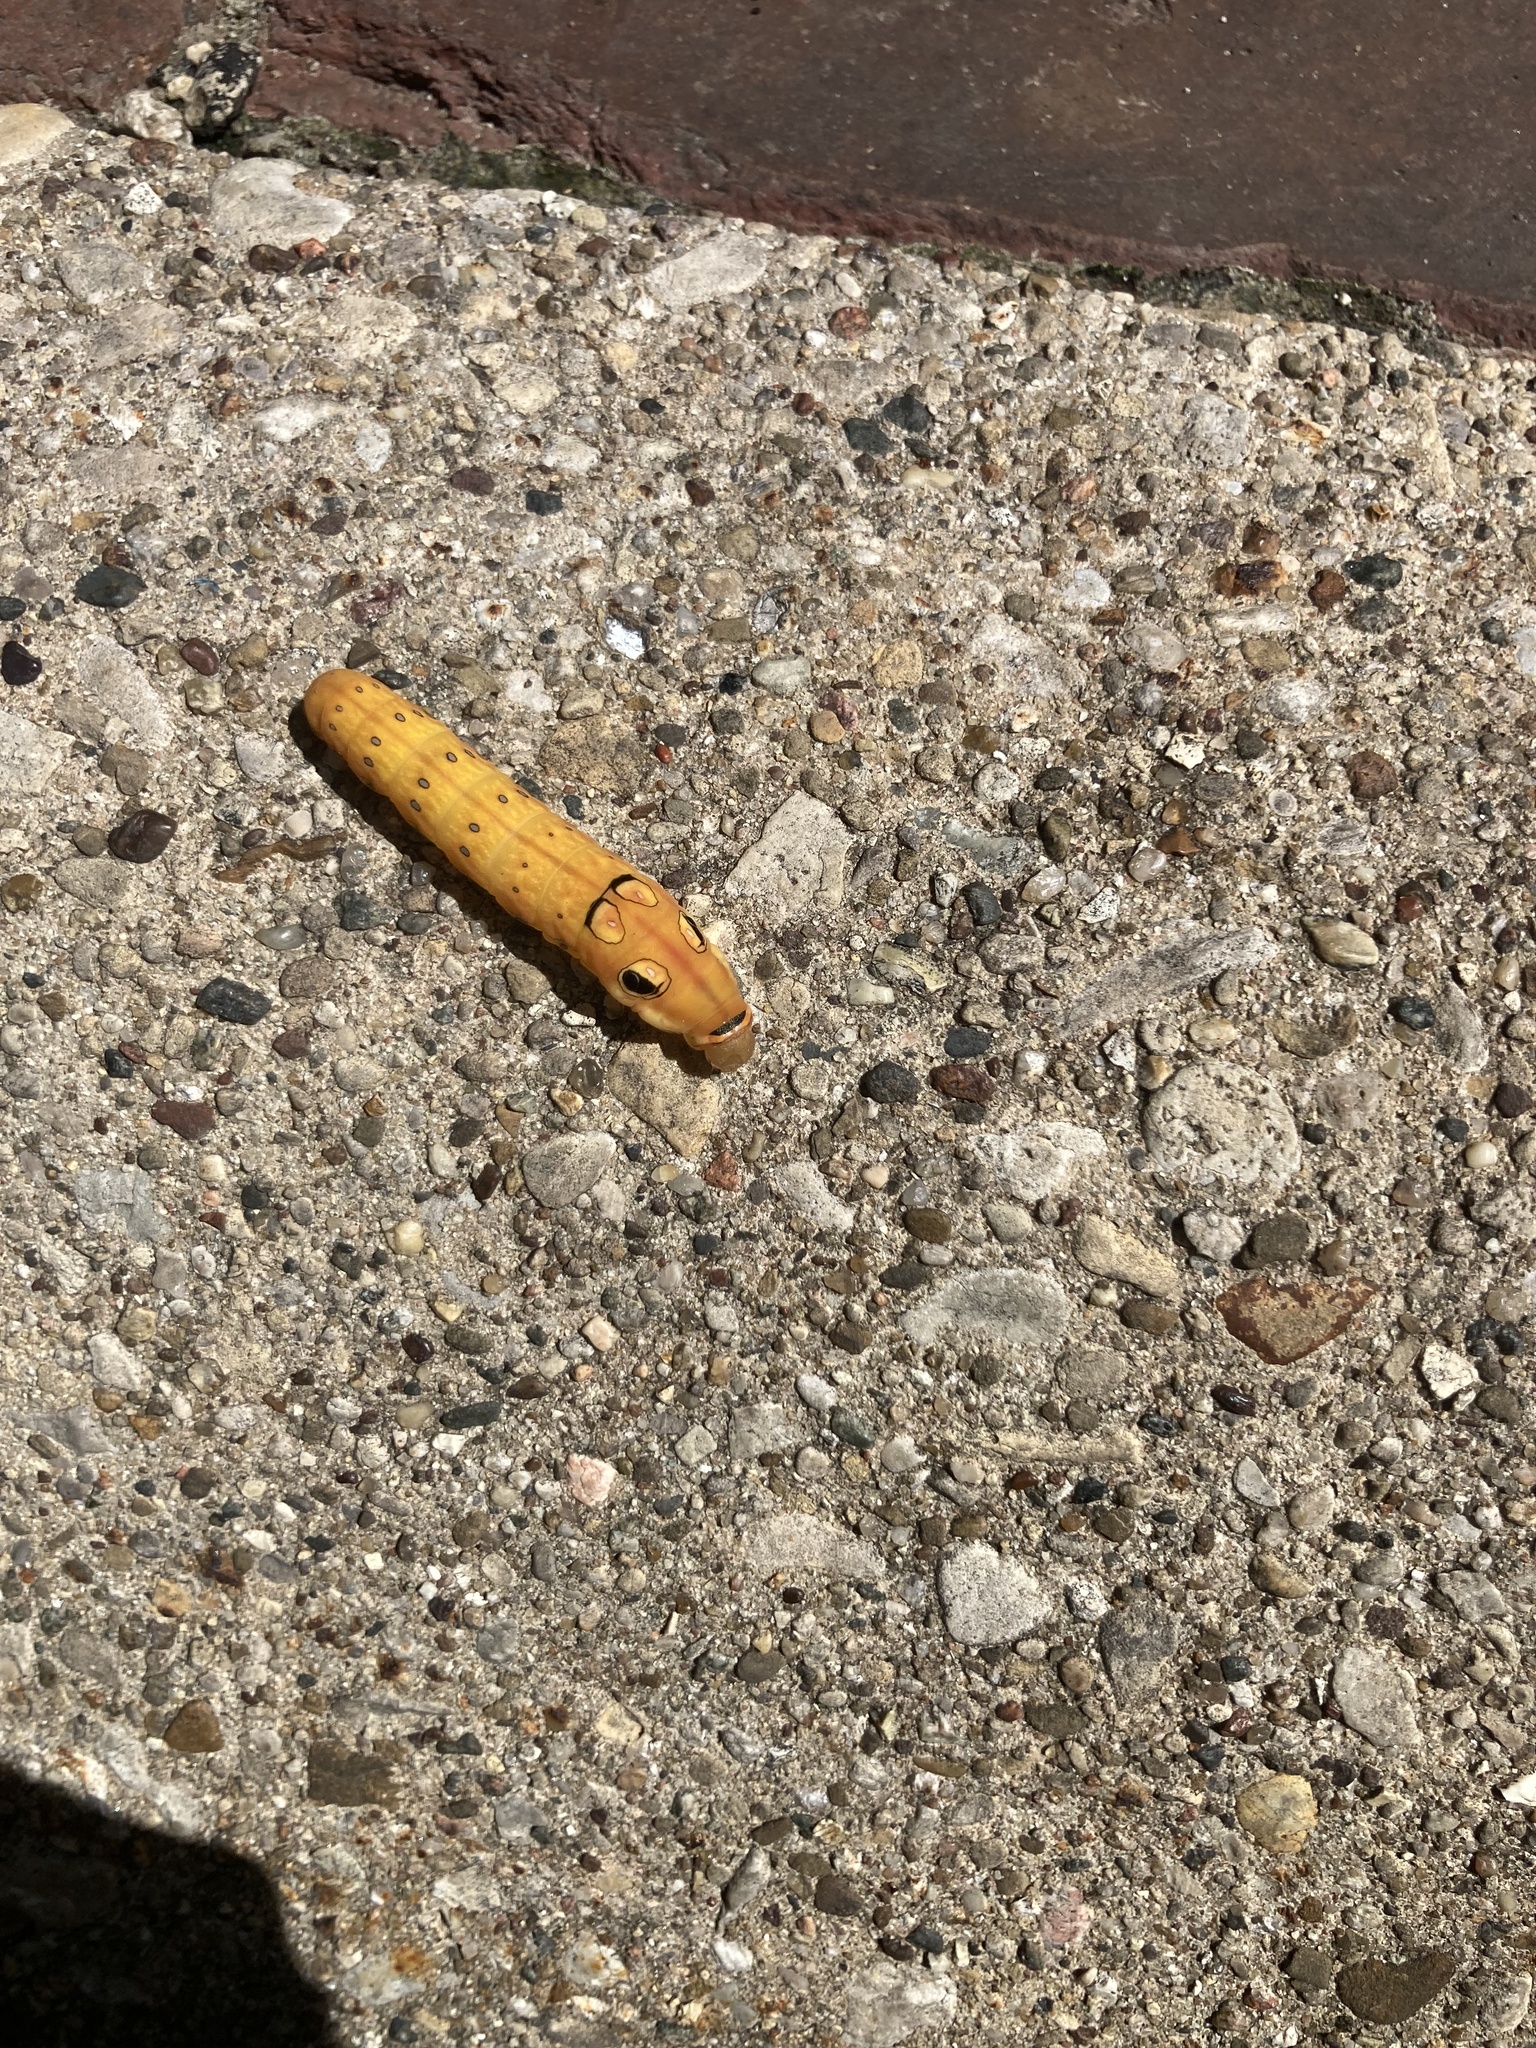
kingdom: Animalia
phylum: Arthropoda
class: Insecta
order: Lepidoptera
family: Papilionidae
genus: Papilio
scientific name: Papilio troilus
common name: Spicebush swallowtail
